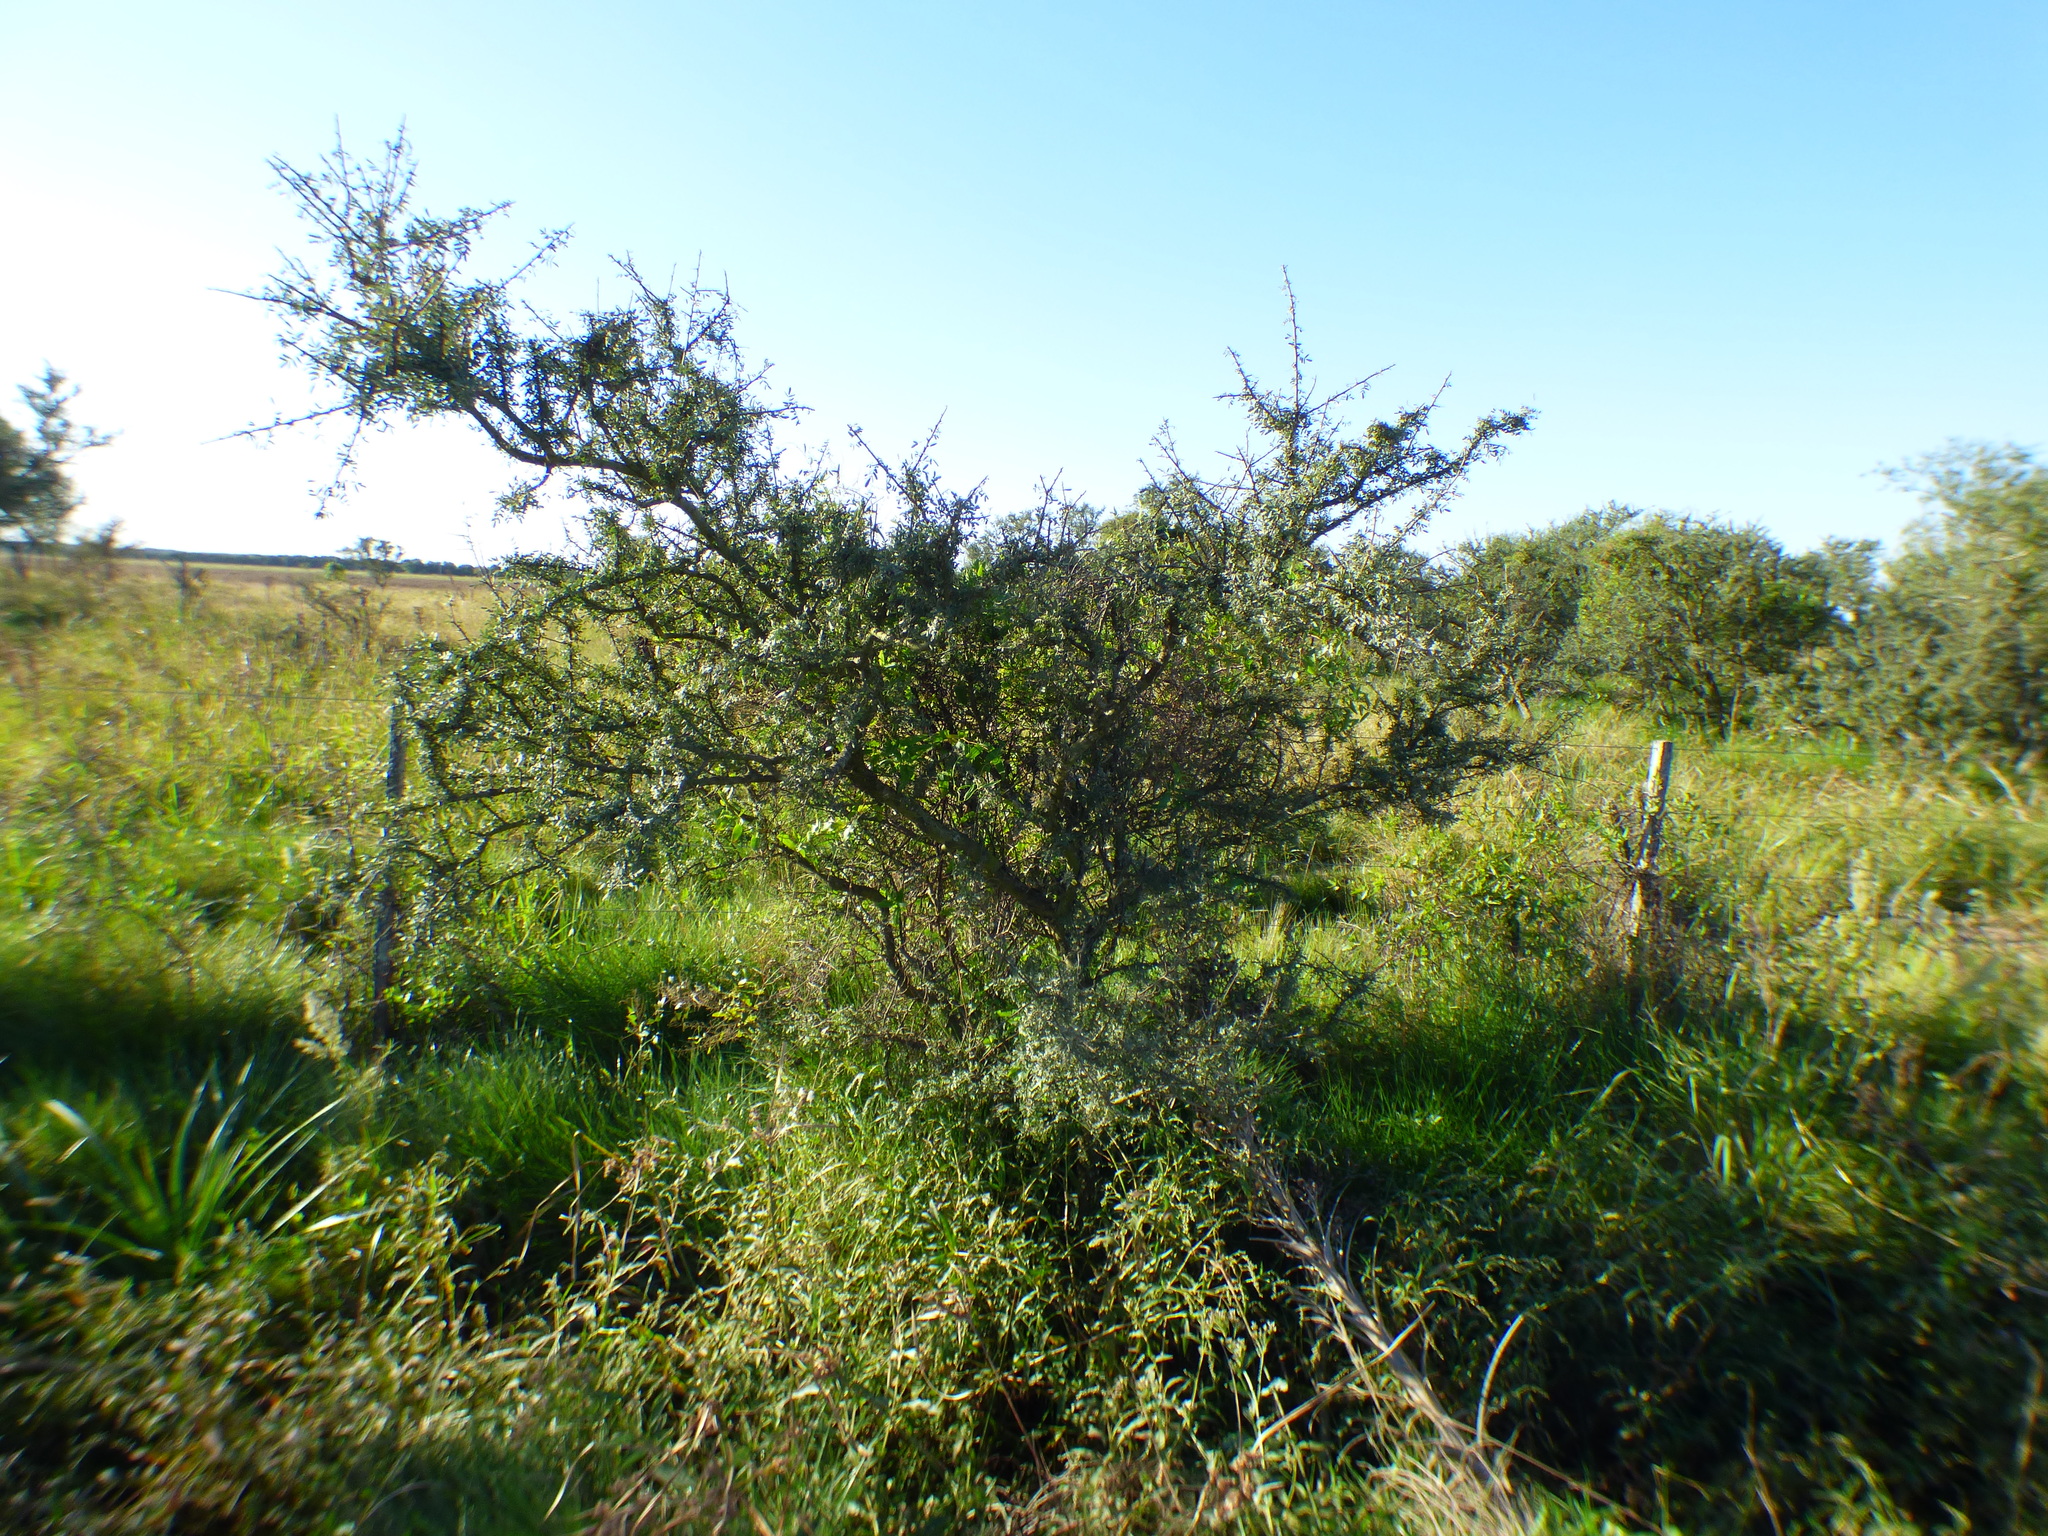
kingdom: Plantae
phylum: Tracheophyta
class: Magnoliopsida
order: Fabales
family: Fabaceae
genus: Geoffroea
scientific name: Geoffroea decorticans
